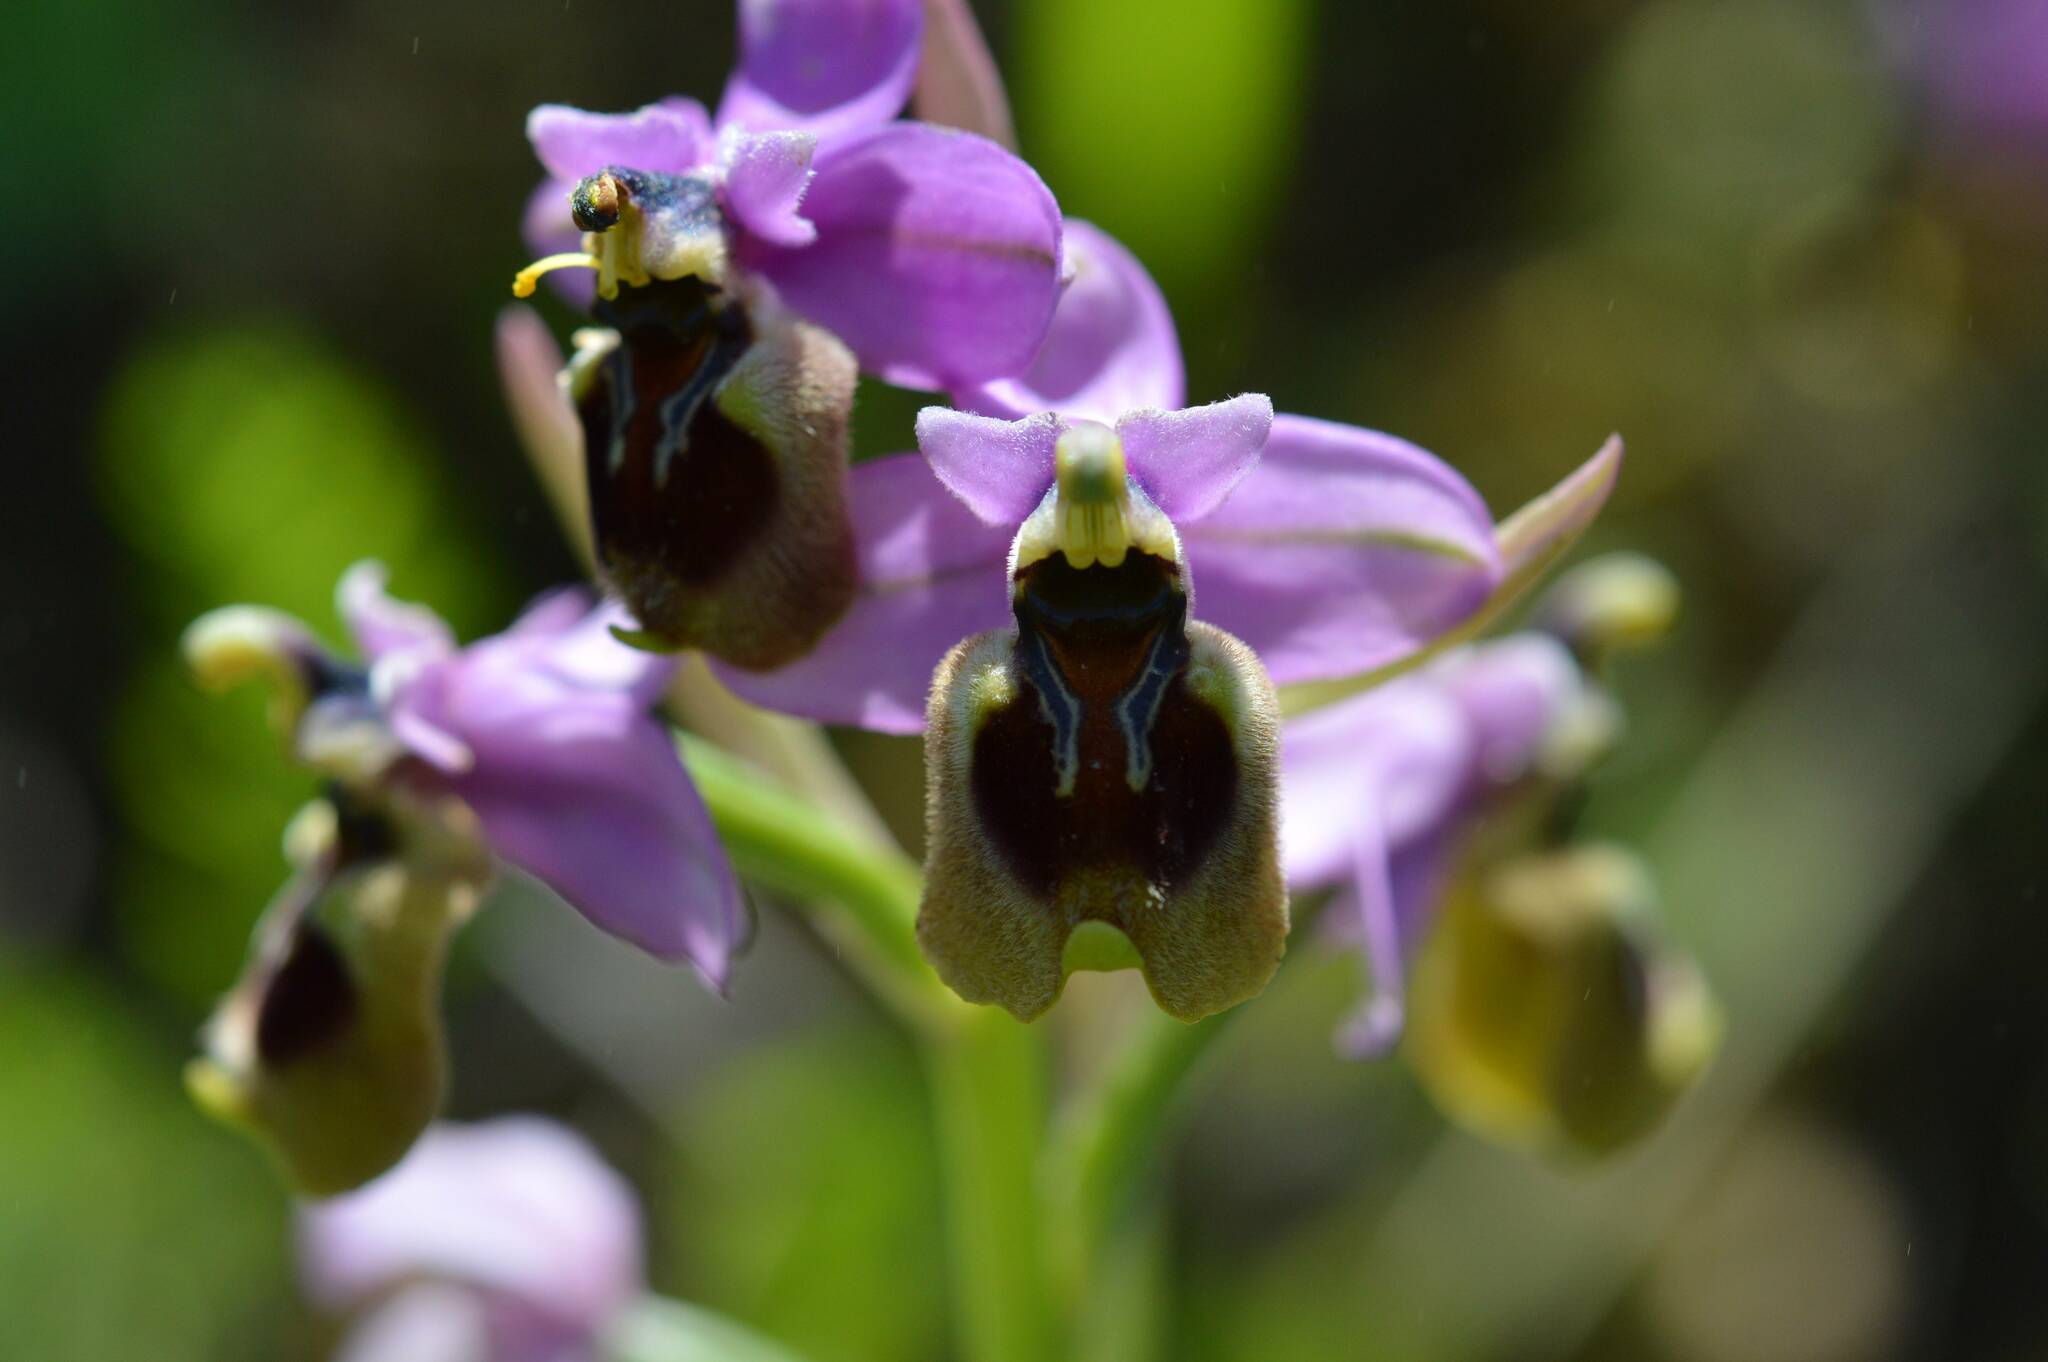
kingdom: Plantae
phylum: Tracheophyta
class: Liliopsida
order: Asparagales
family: Orchidaceae
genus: Ophrys
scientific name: Ophrys tenthredinifera
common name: Sawfly orchid
